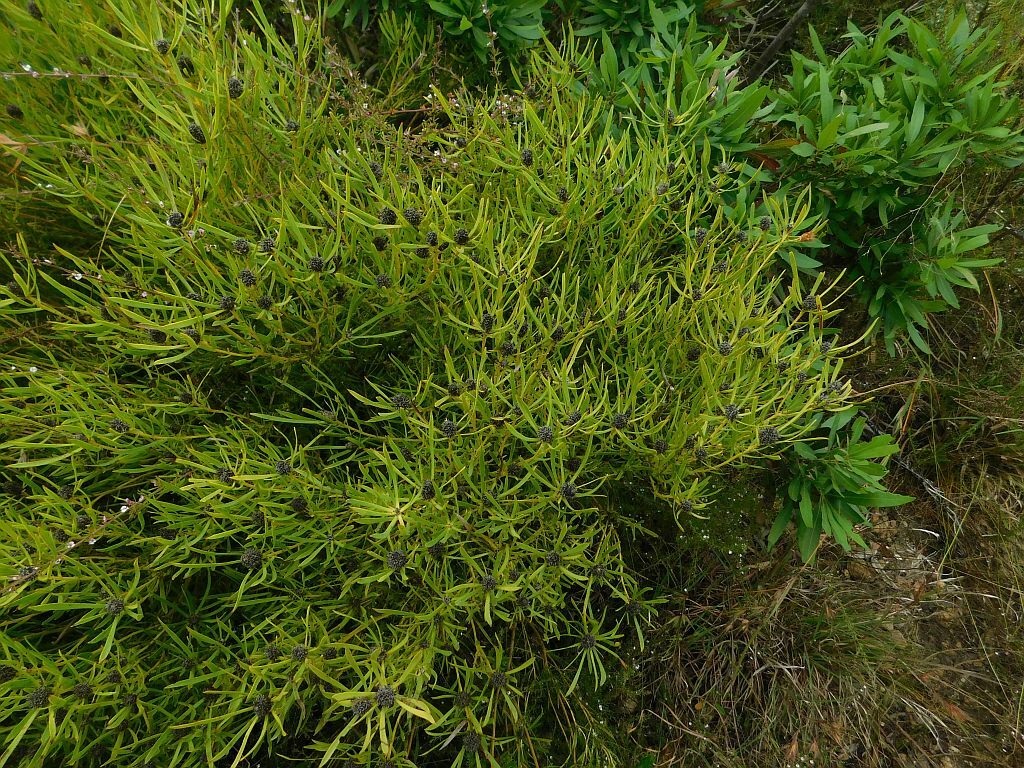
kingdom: Plantae
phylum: Tracheophyta
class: Magnoliopsida
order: Proteales
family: Proteaceae
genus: Leucadendron
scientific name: Leucadendron spissifolium
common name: Spear-leaf conebush
